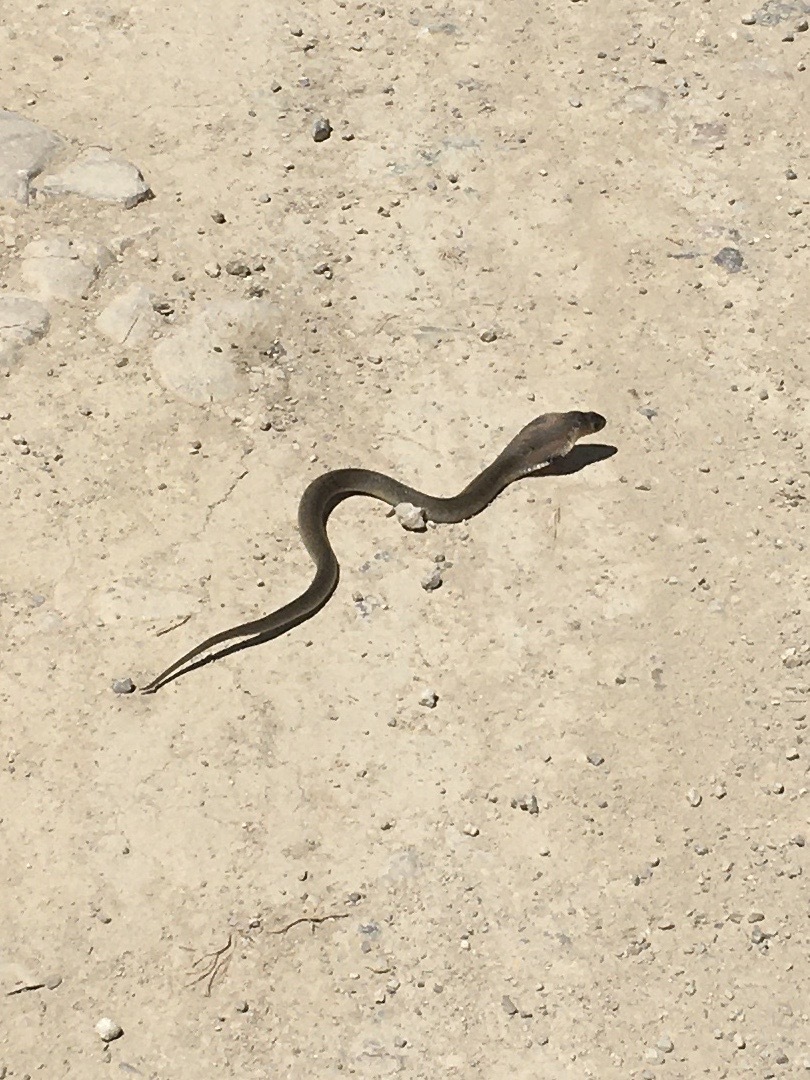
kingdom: Animalia
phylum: Chordata
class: Squamata
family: Elapidae
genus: Naja
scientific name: Naja siamensis
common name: Indo-chinese spitting cobra
